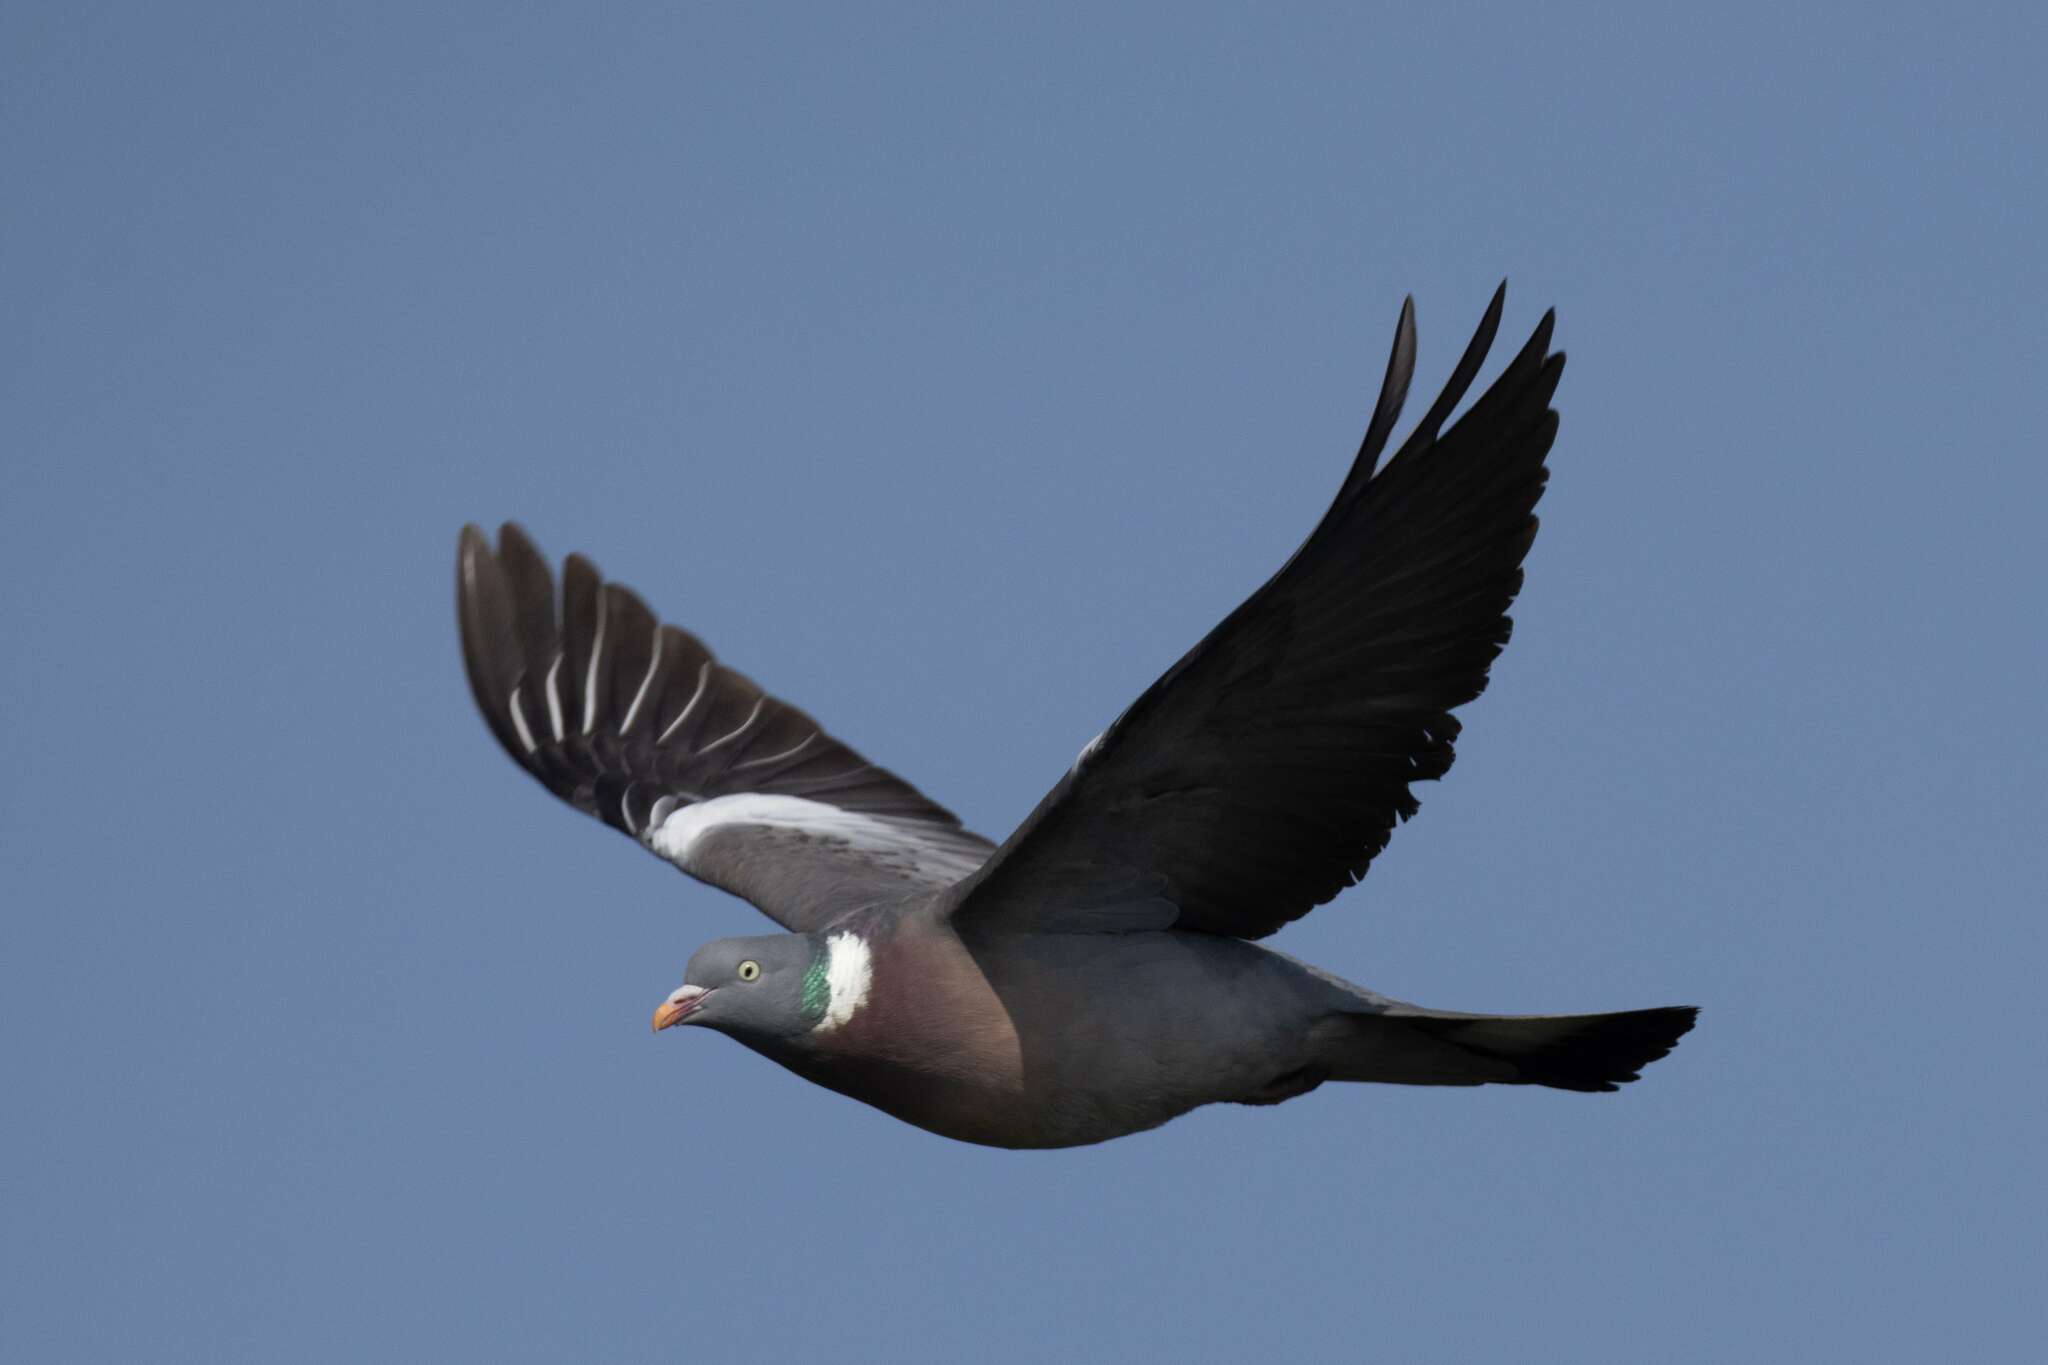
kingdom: Animalia
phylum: Chordata
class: Aves
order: Columbiformes
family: Columbidae
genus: Columba
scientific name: Columba palumbus
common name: Common wood pigeon
